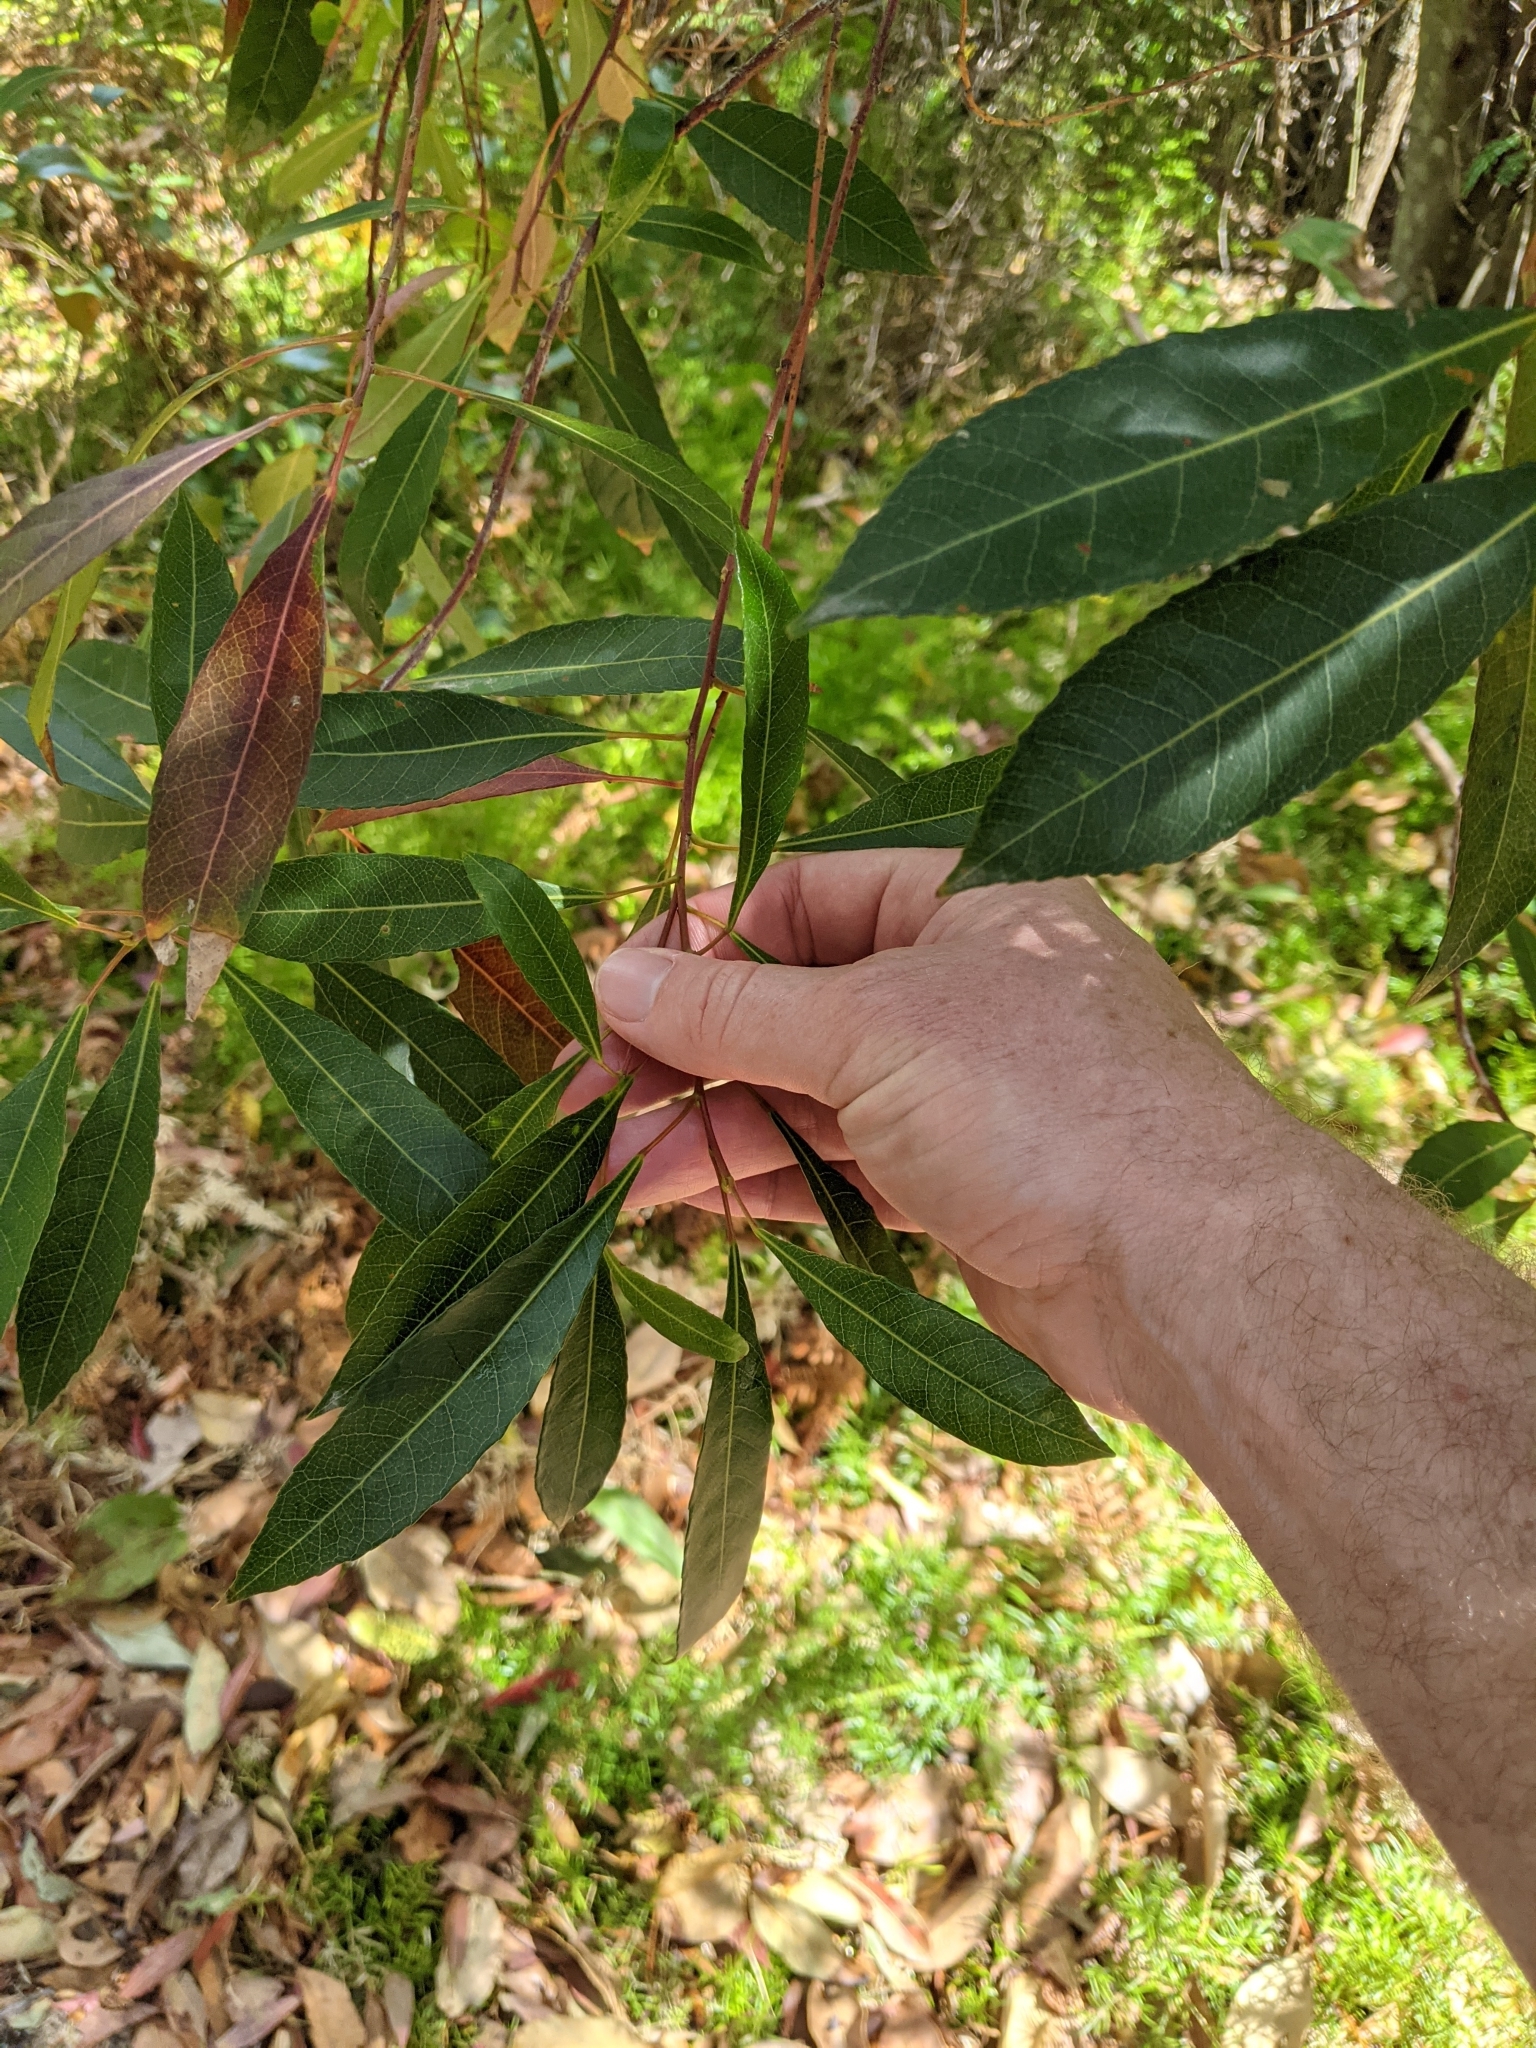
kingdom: Plantae
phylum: Tracheophyta
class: Magnoliopsida
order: Oxalidales
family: Elaeocarpaceae
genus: Elaeocarpus
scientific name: Elaeocarpus reticulatus
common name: Ash quandong
